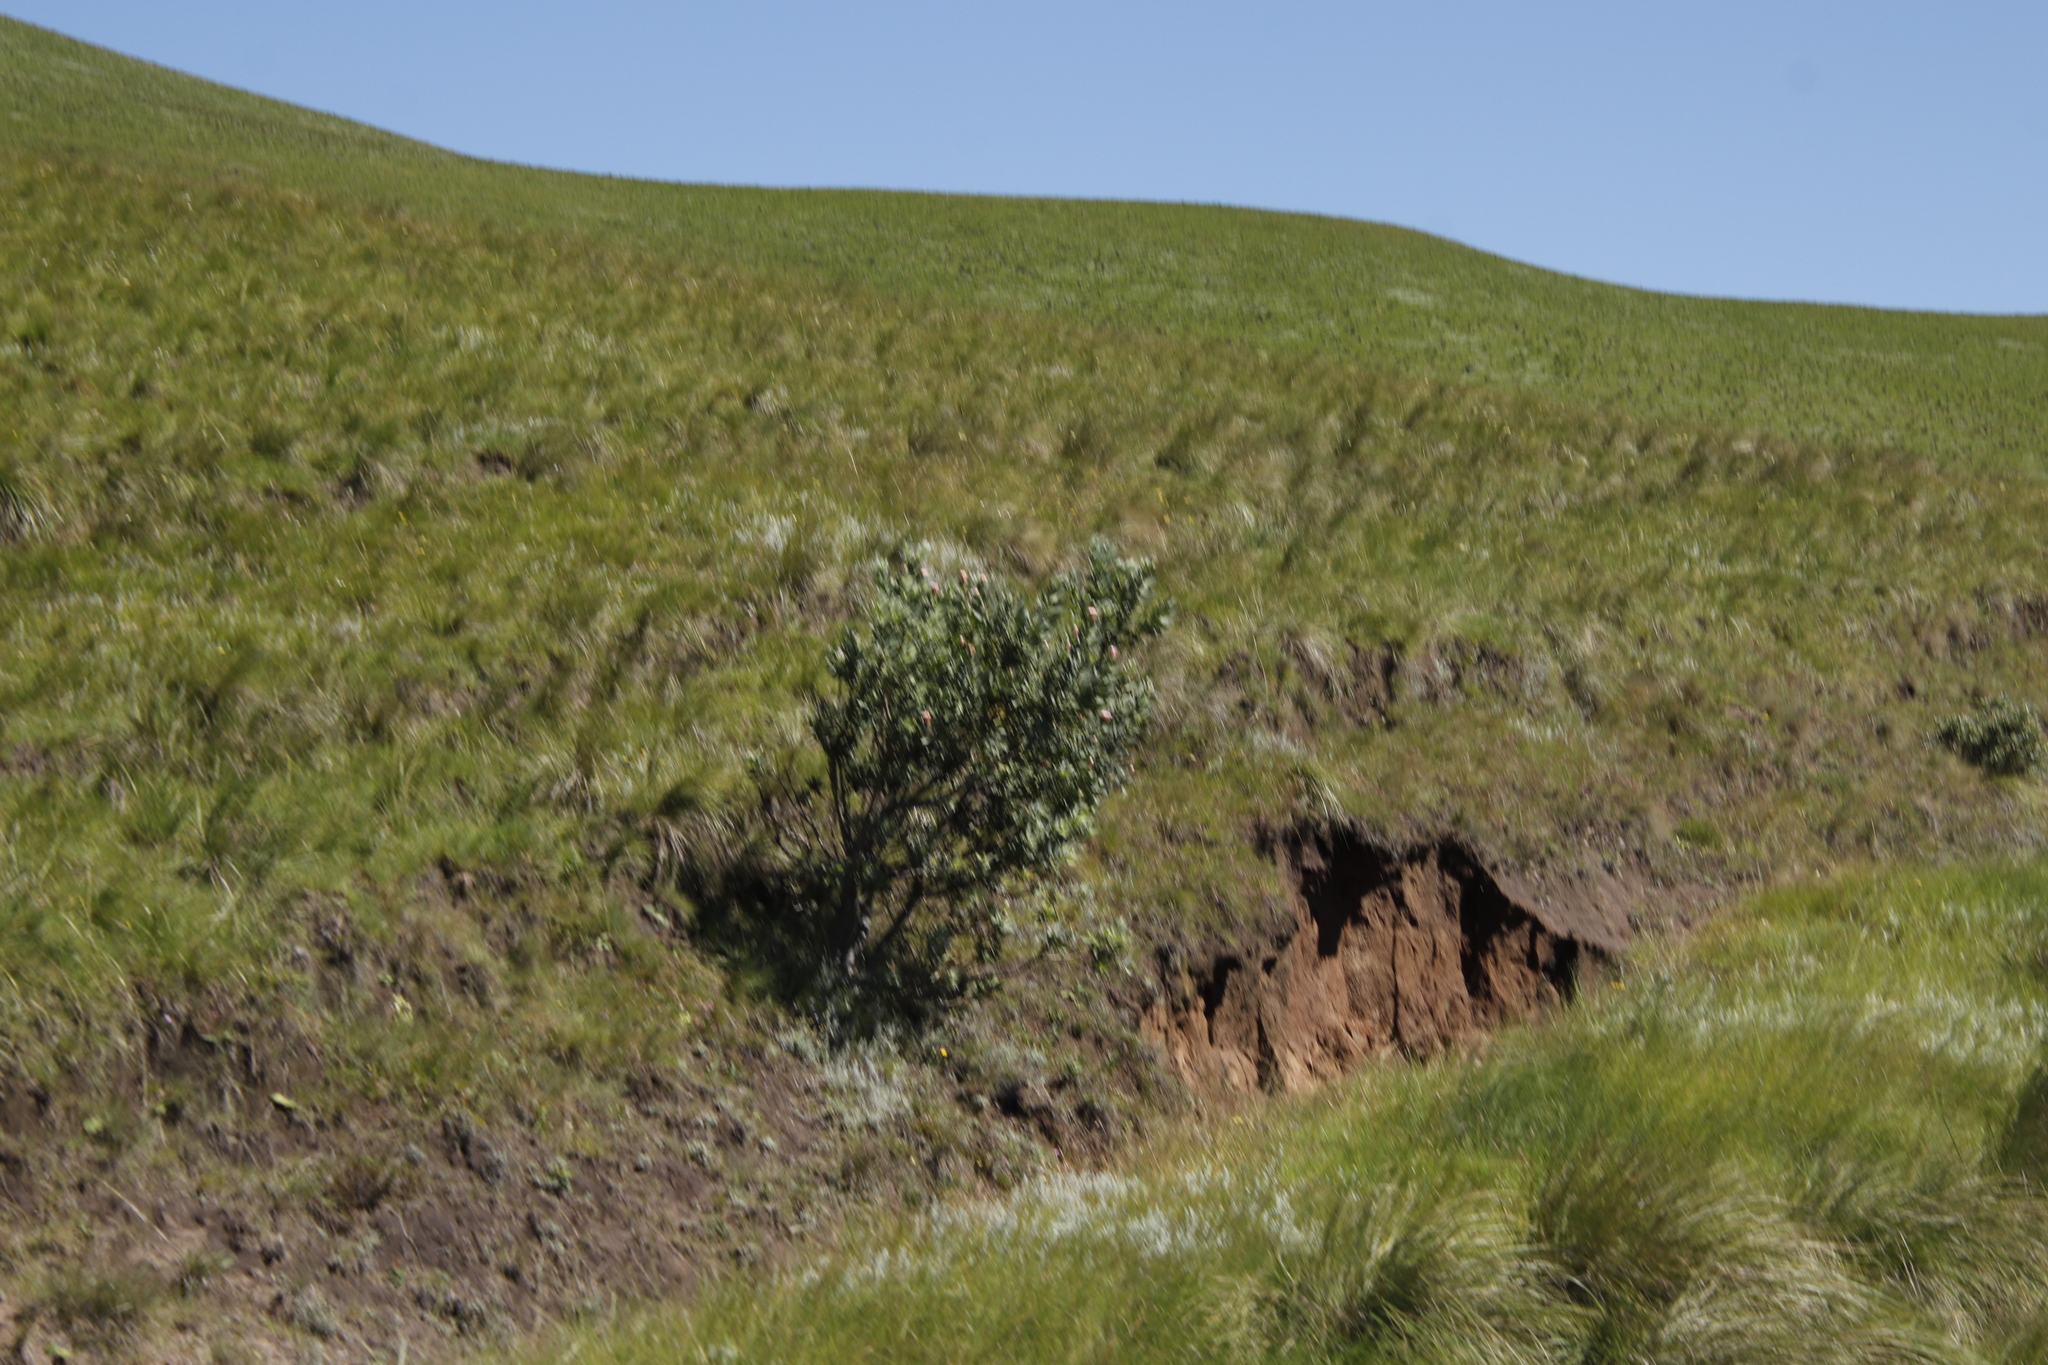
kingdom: Plantae
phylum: Tracheophyta
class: Magnoliopsida
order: Proteales
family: Proteaceae
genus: Protea
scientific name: Protea subvestita
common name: Lip-flower sugarbush
